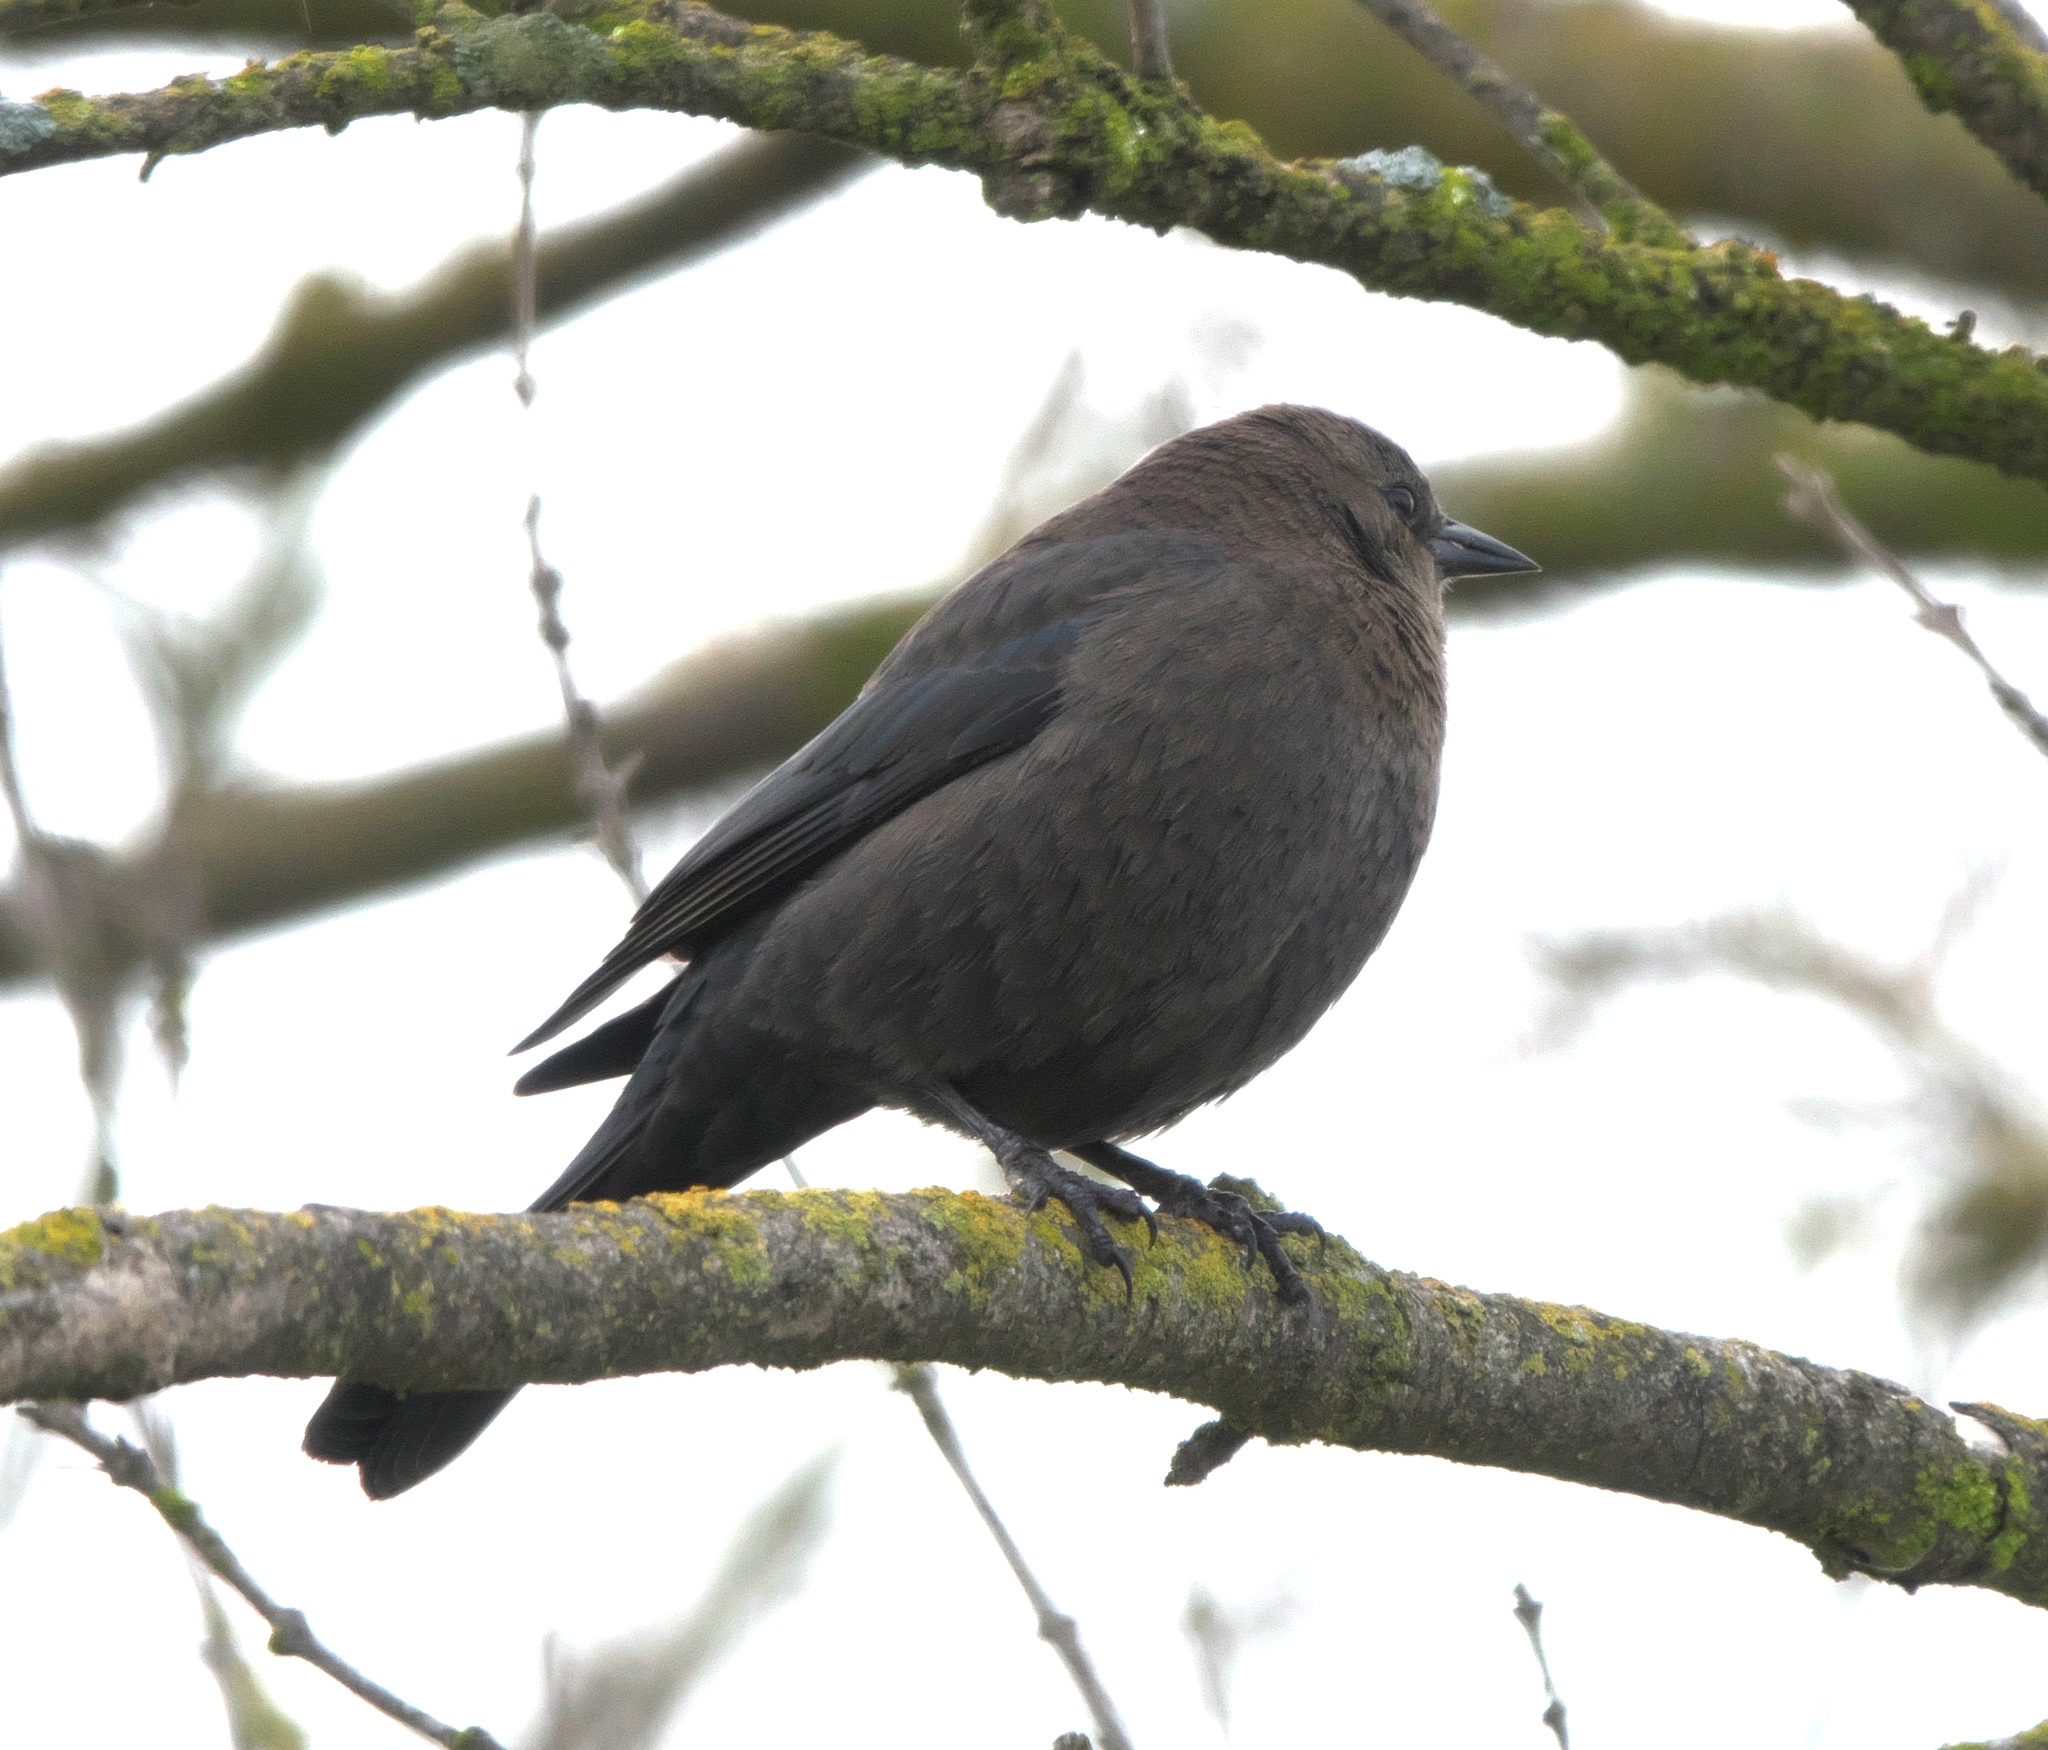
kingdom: Animalia
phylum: Chordata
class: Aves
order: Passeriformes
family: Icteridae
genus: Euphagus
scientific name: Euphagus cyanocephalus
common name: Brewer's blackbird
